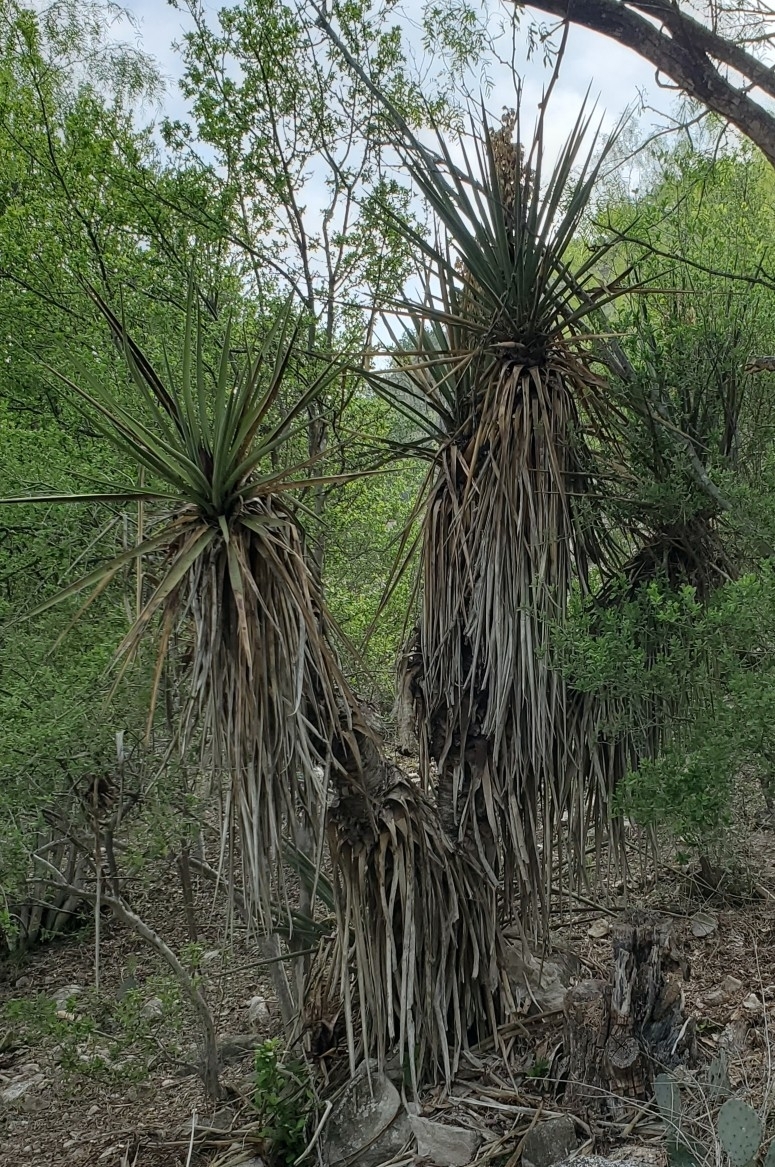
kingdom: Plantae
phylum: Tracheophyta
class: Liliopsida
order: Asparagales
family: Asparagaceae
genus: Yucca
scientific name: Yucca treculiana
